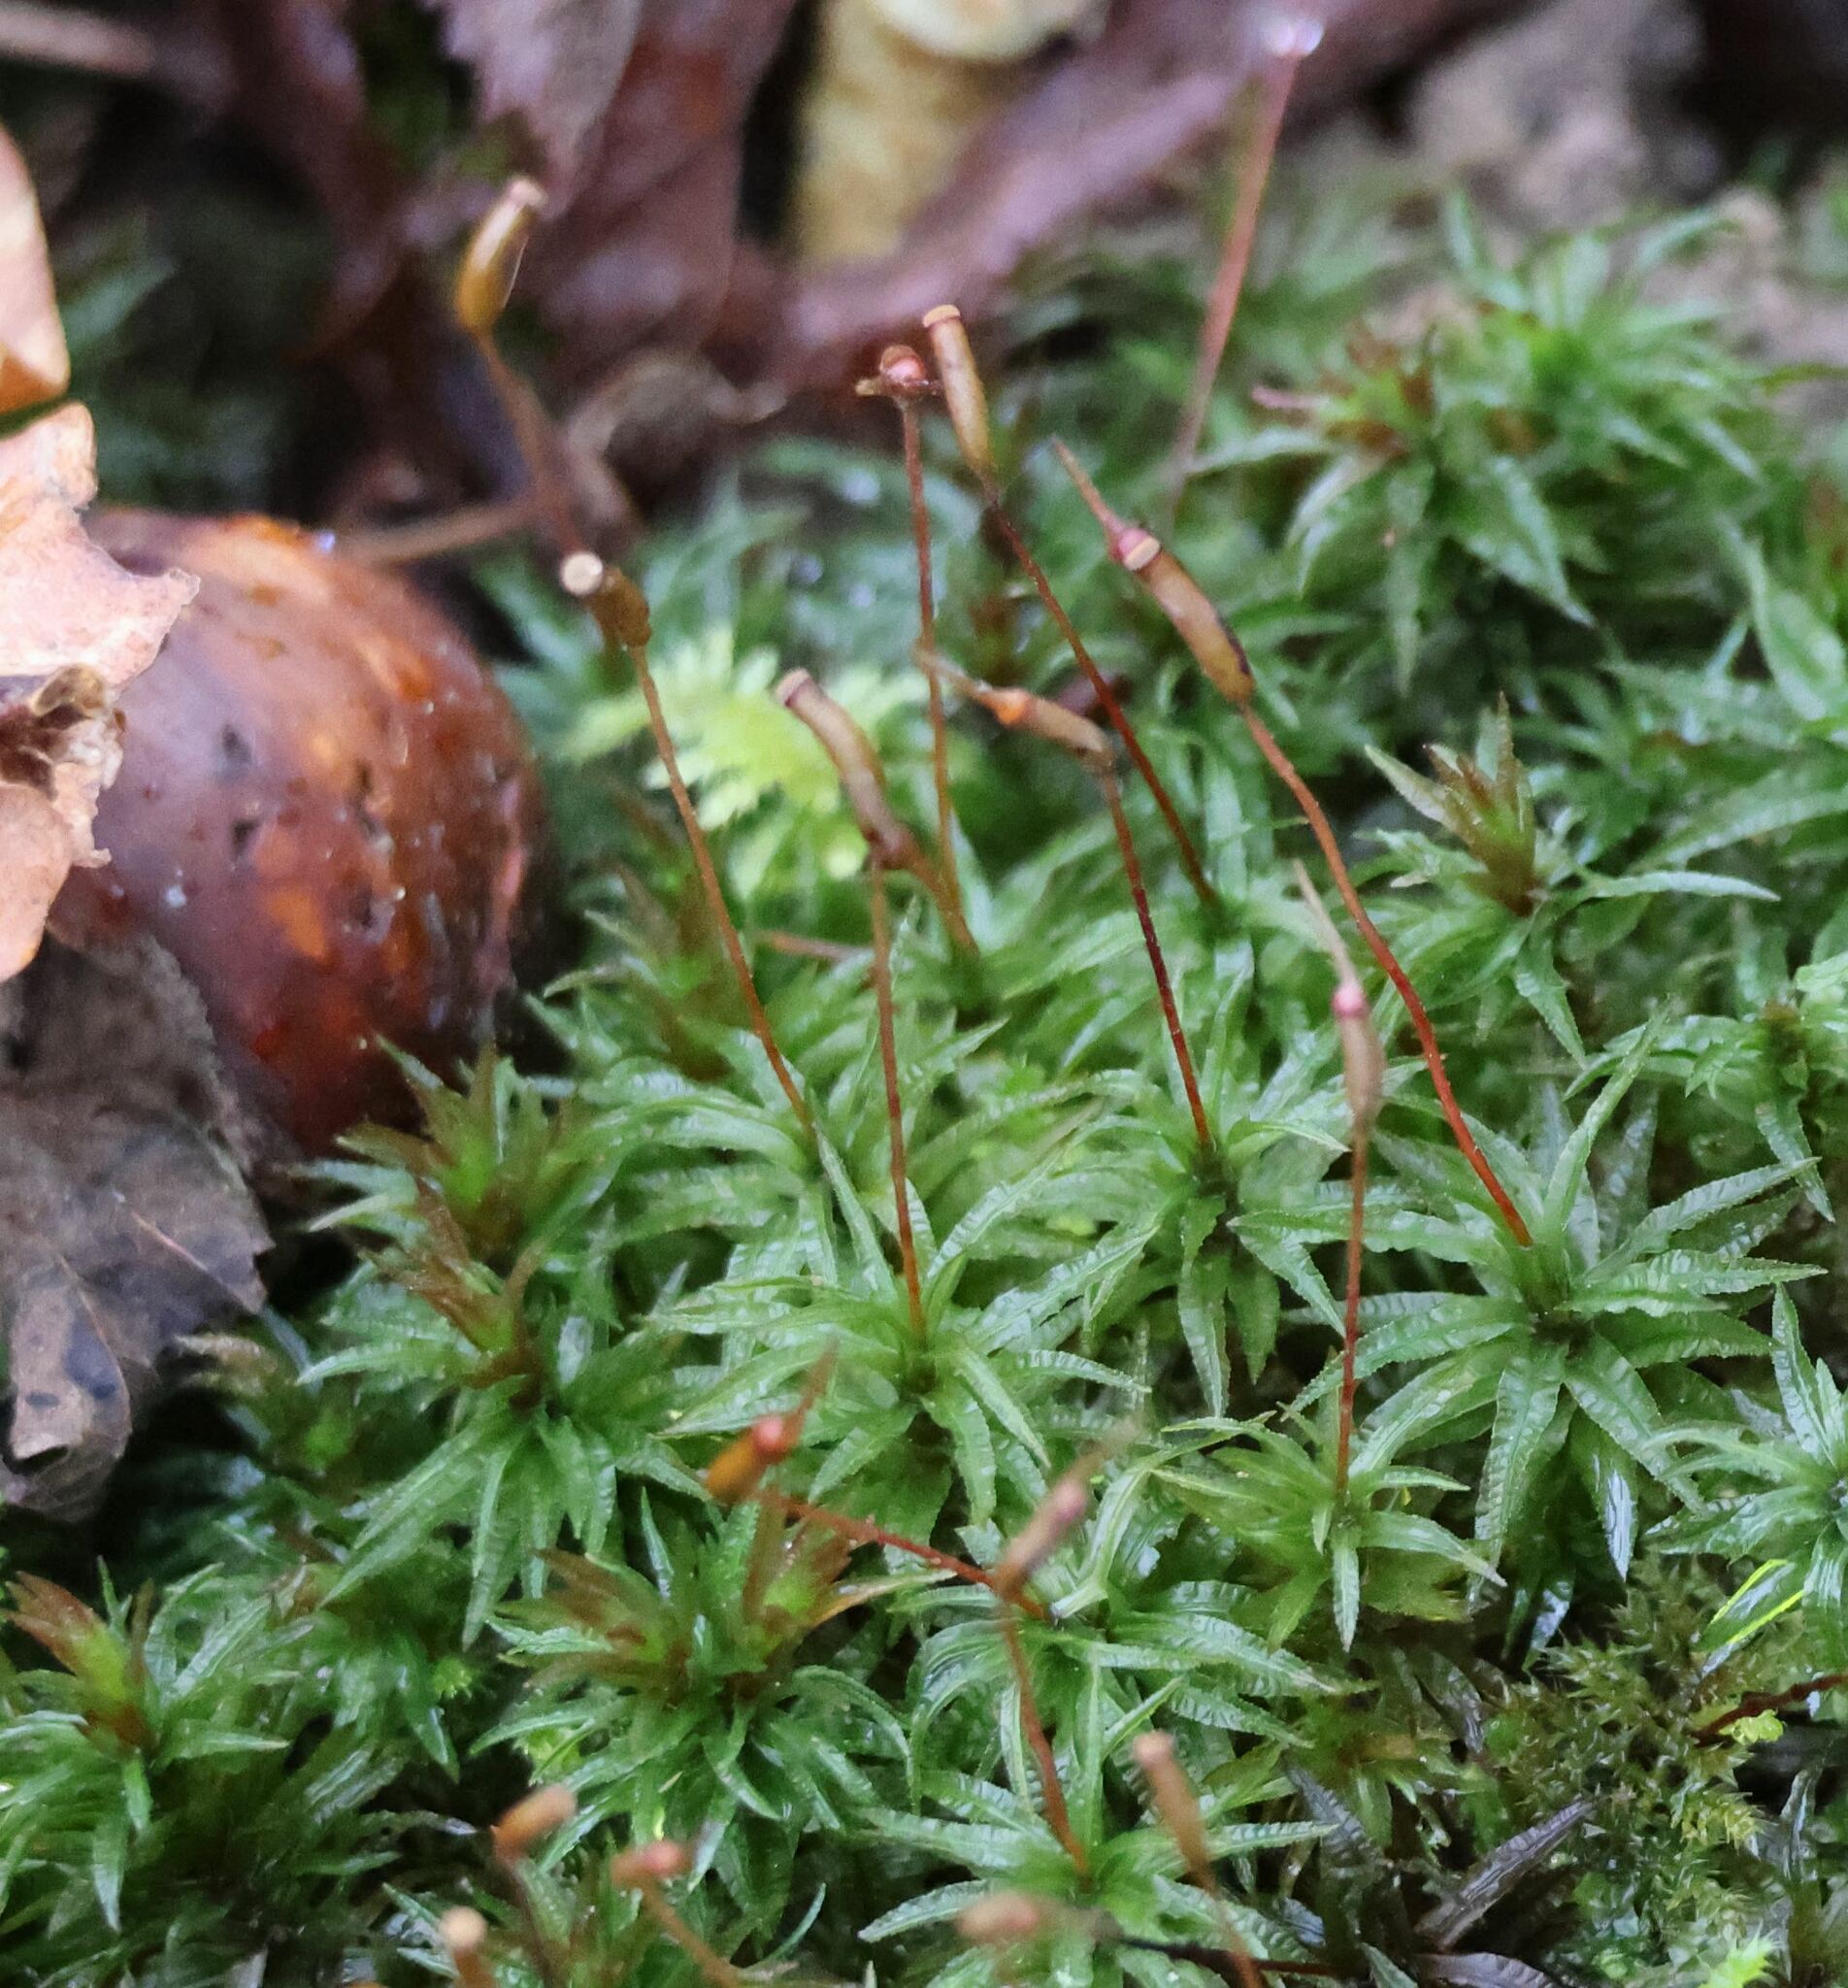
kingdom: Plantae
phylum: Bryophyta
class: Polytrichopsida
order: Polytrichales
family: Polytrichaceae
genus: Atrichum
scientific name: Atrichum undulatum
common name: Common smoothcap
